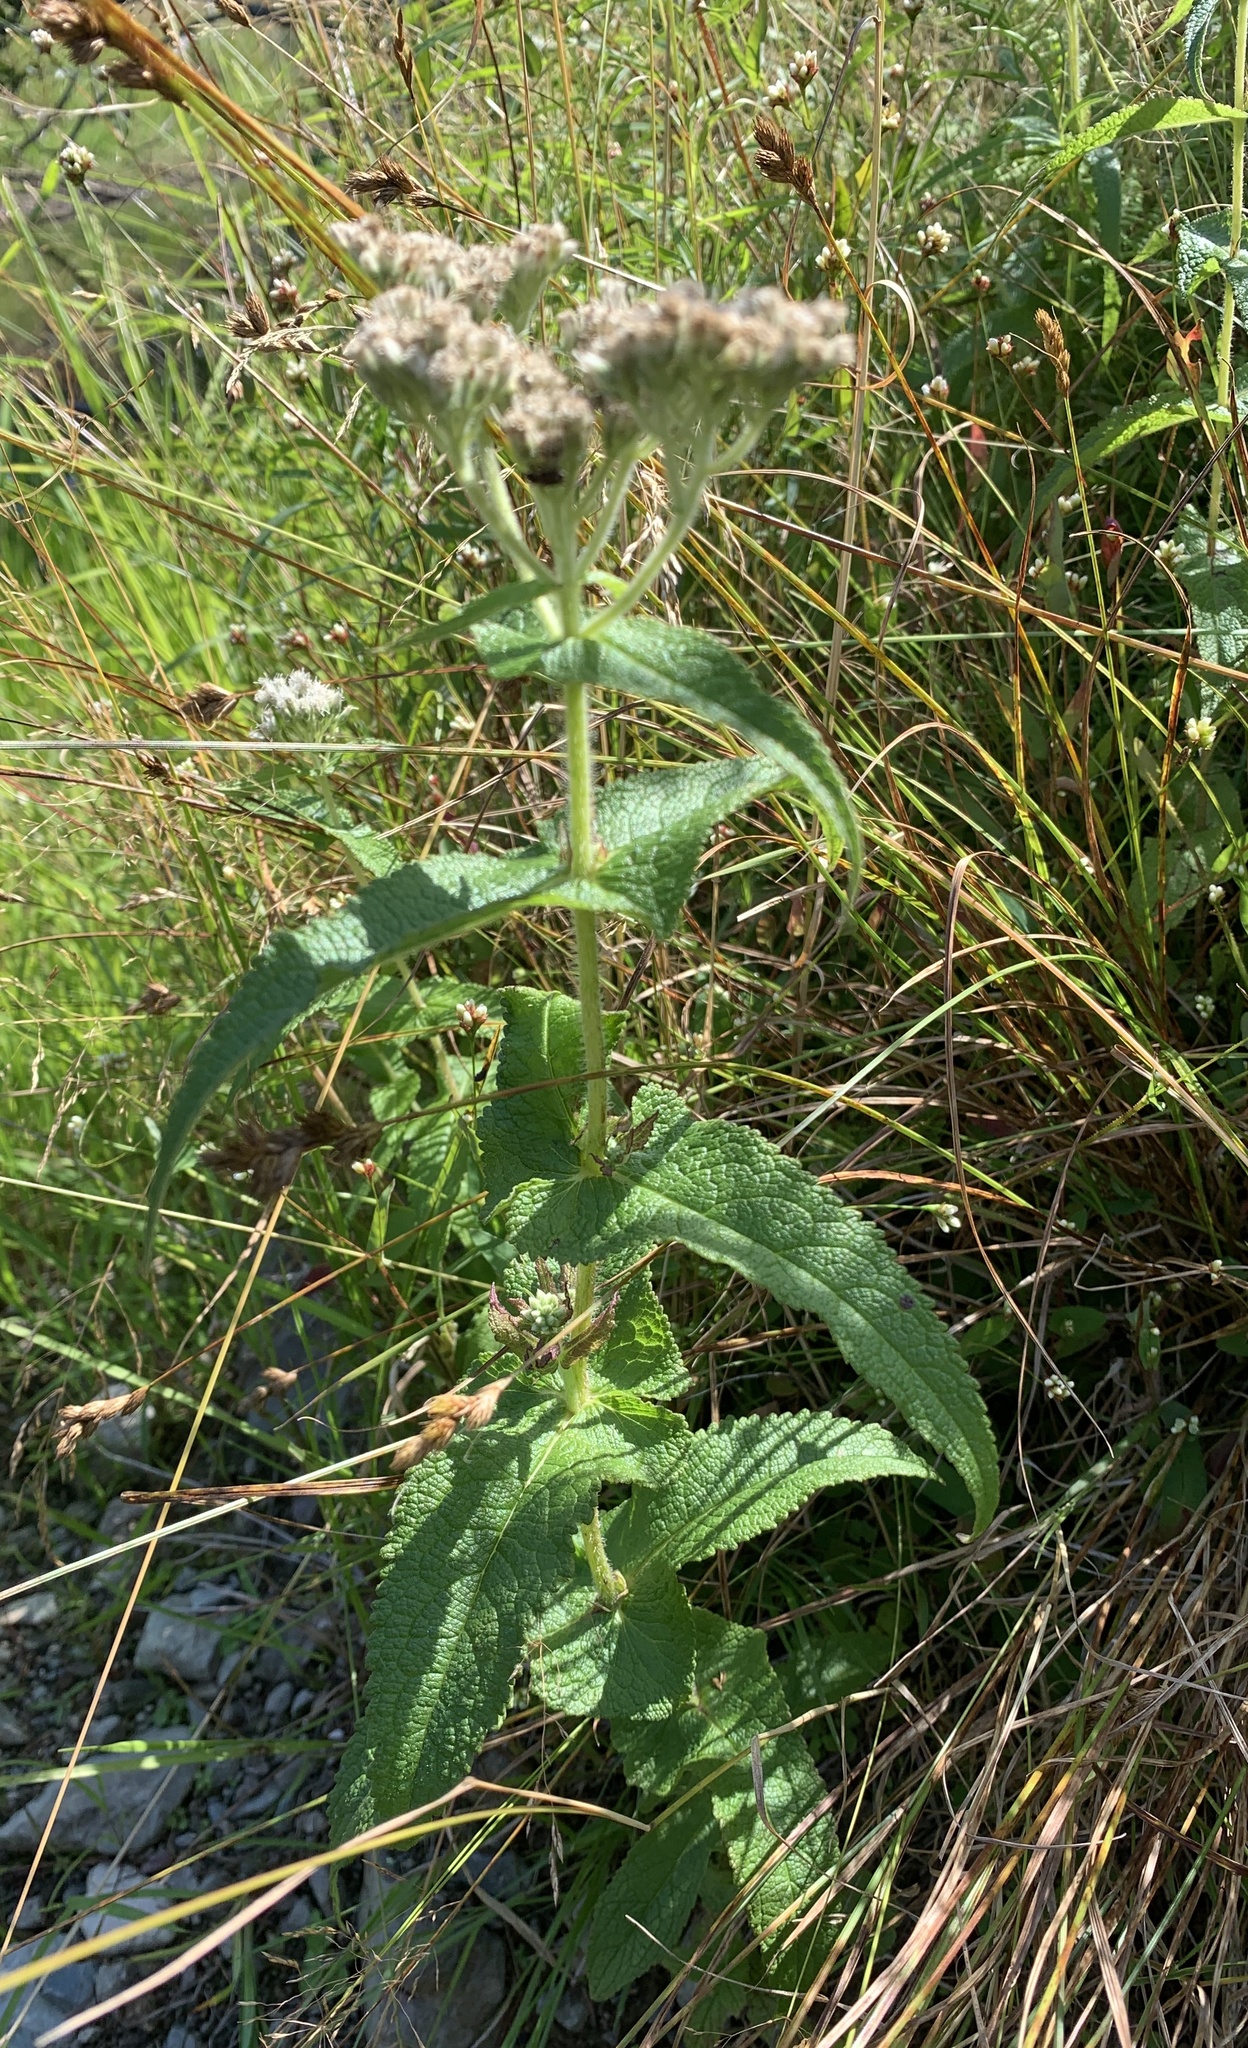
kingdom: Plantae
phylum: Tracheophyta
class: Magnoliopsida
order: Asterales
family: Asteraceae
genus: Eupatorium
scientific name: Eupatorium perfoliatum
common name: Boneset
